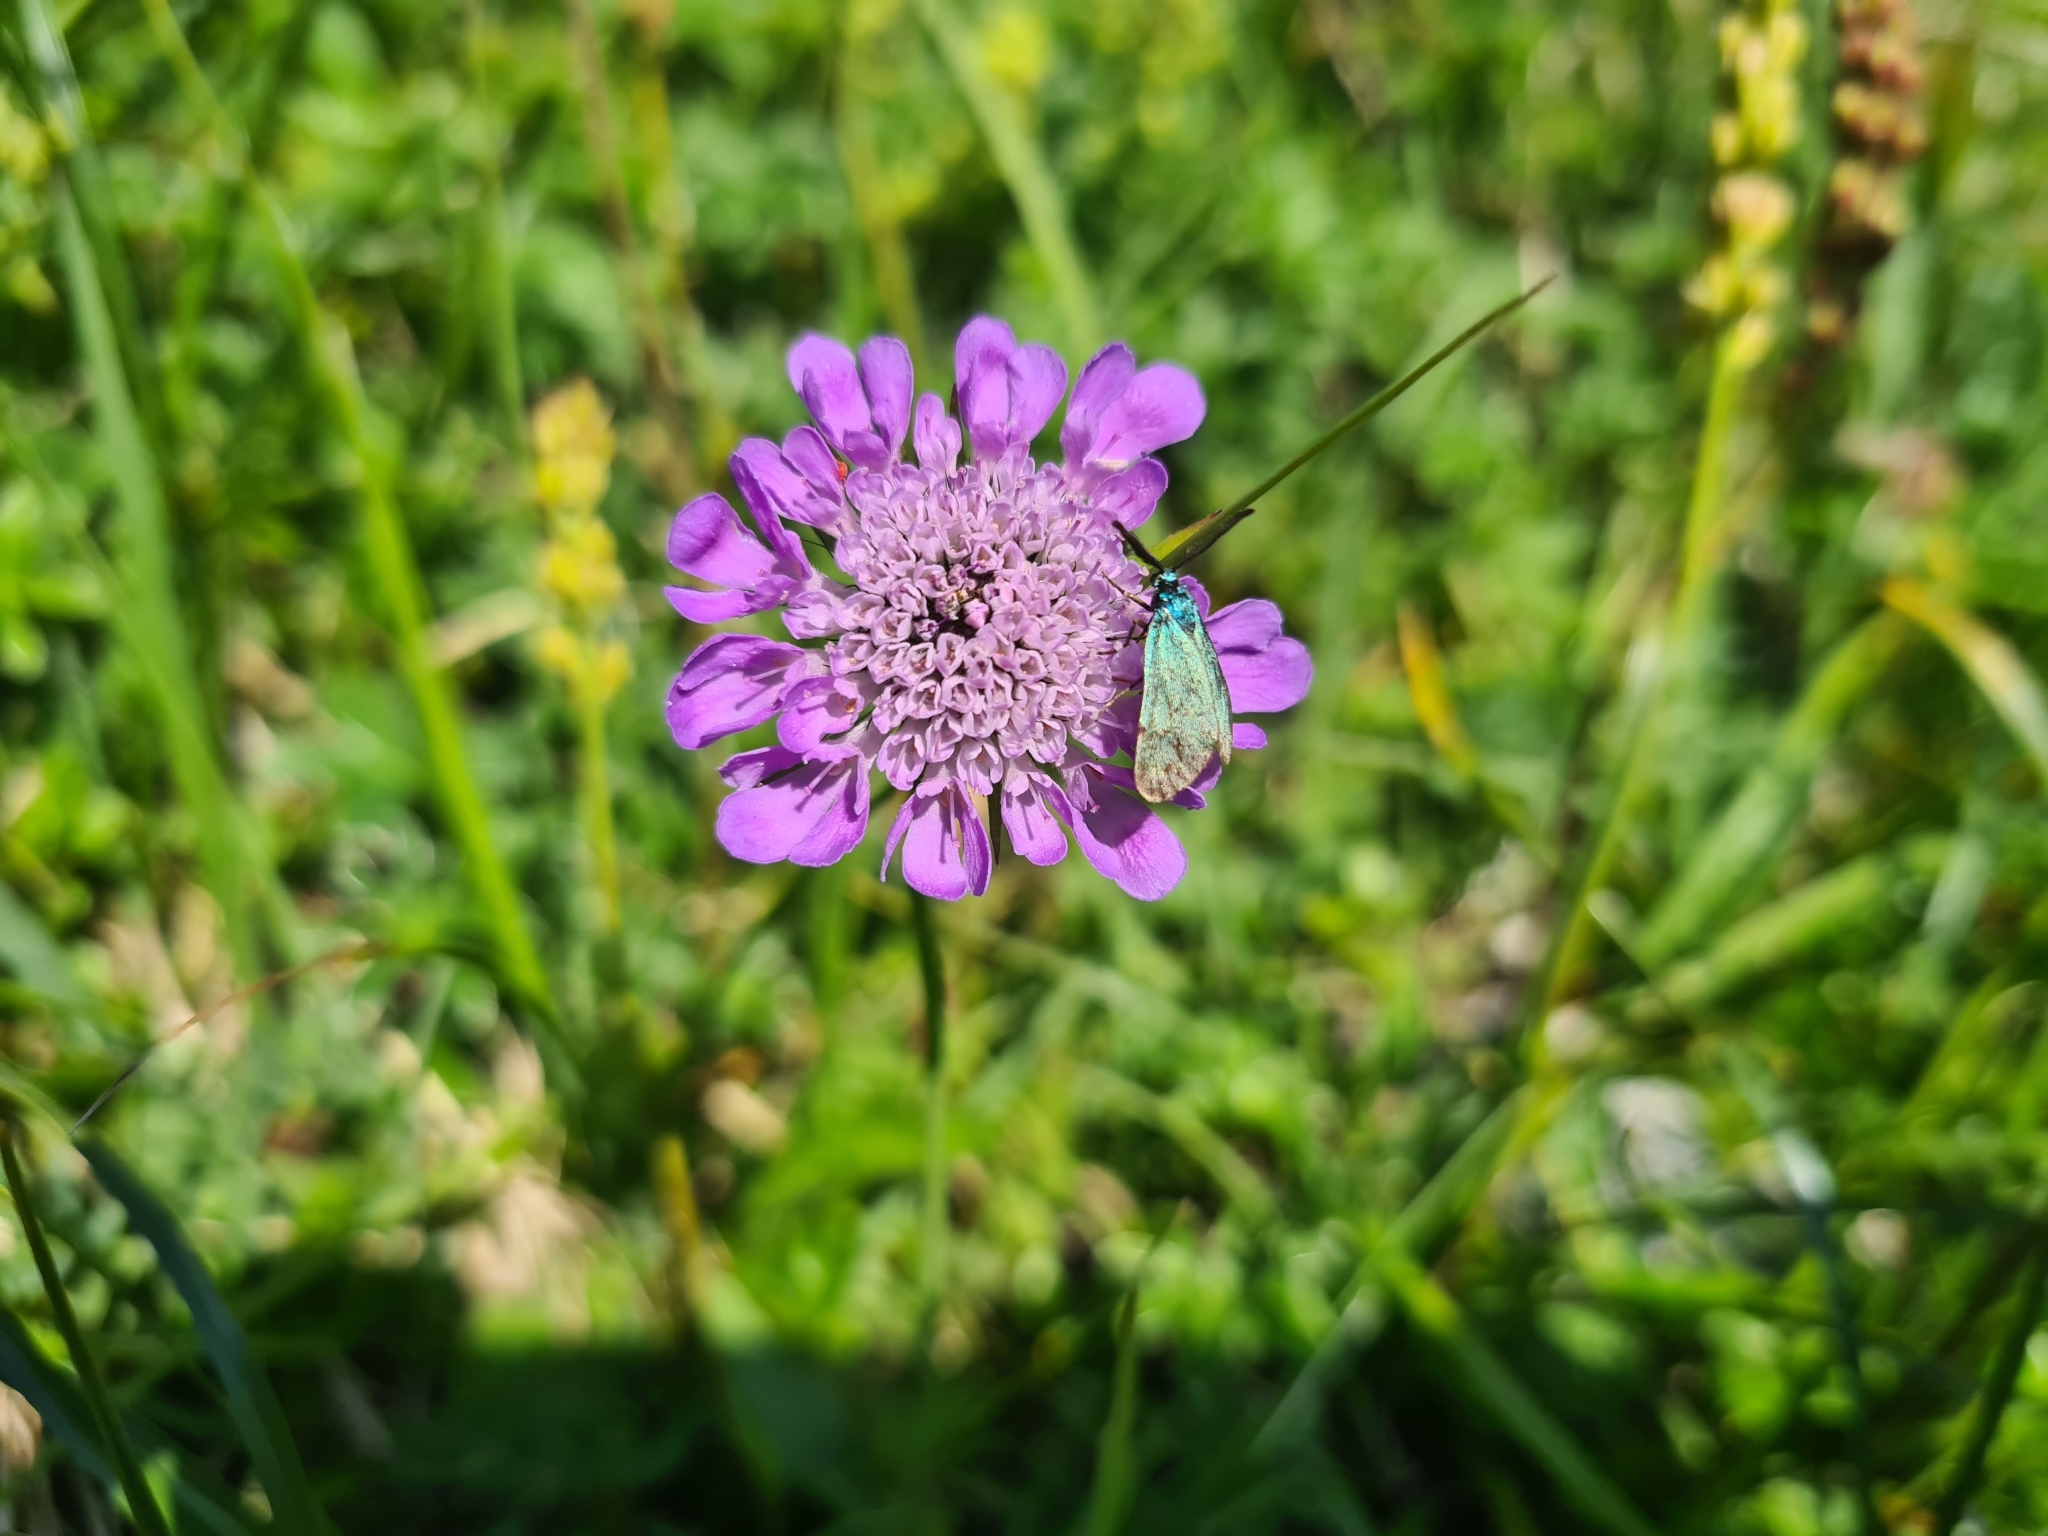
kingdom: Animalia
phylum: Arthropoda
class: Insecta
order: Lepidoptera
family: Zygaenidae
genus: Adscita
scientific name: Adscita statices
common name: Forester
